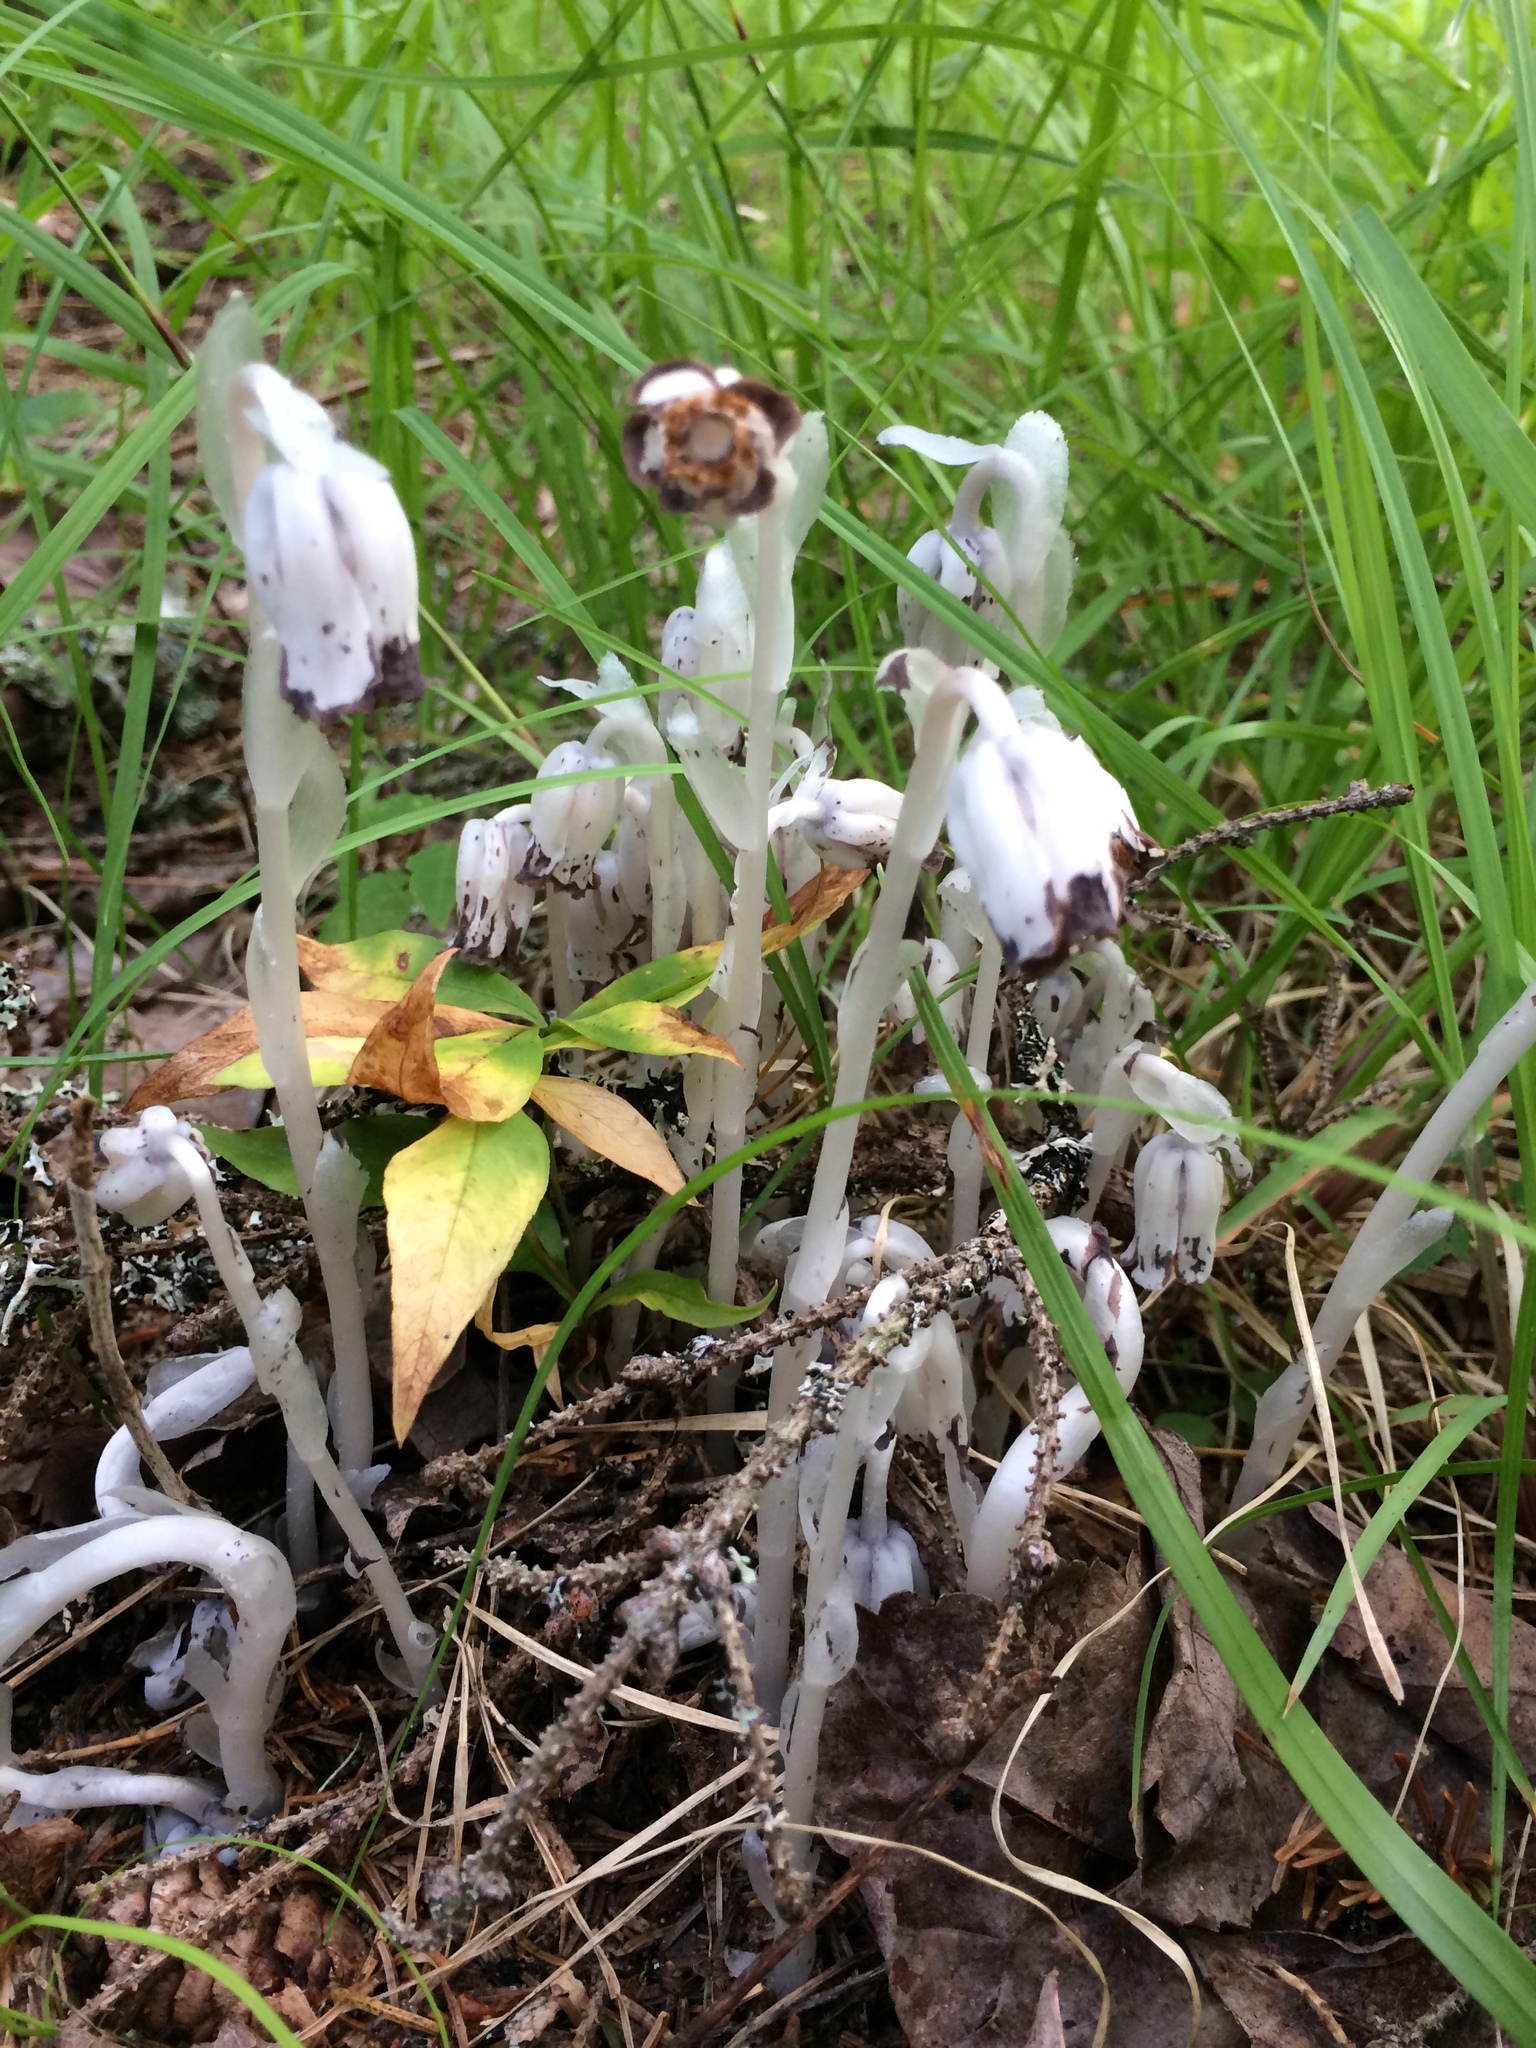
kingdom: Plantae
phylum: Tracheophyta
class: Magnoliopsida
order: Ericales
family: Ericaceae
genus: Monotropa
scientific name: Monotropa uniflora
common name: Convulsion root
